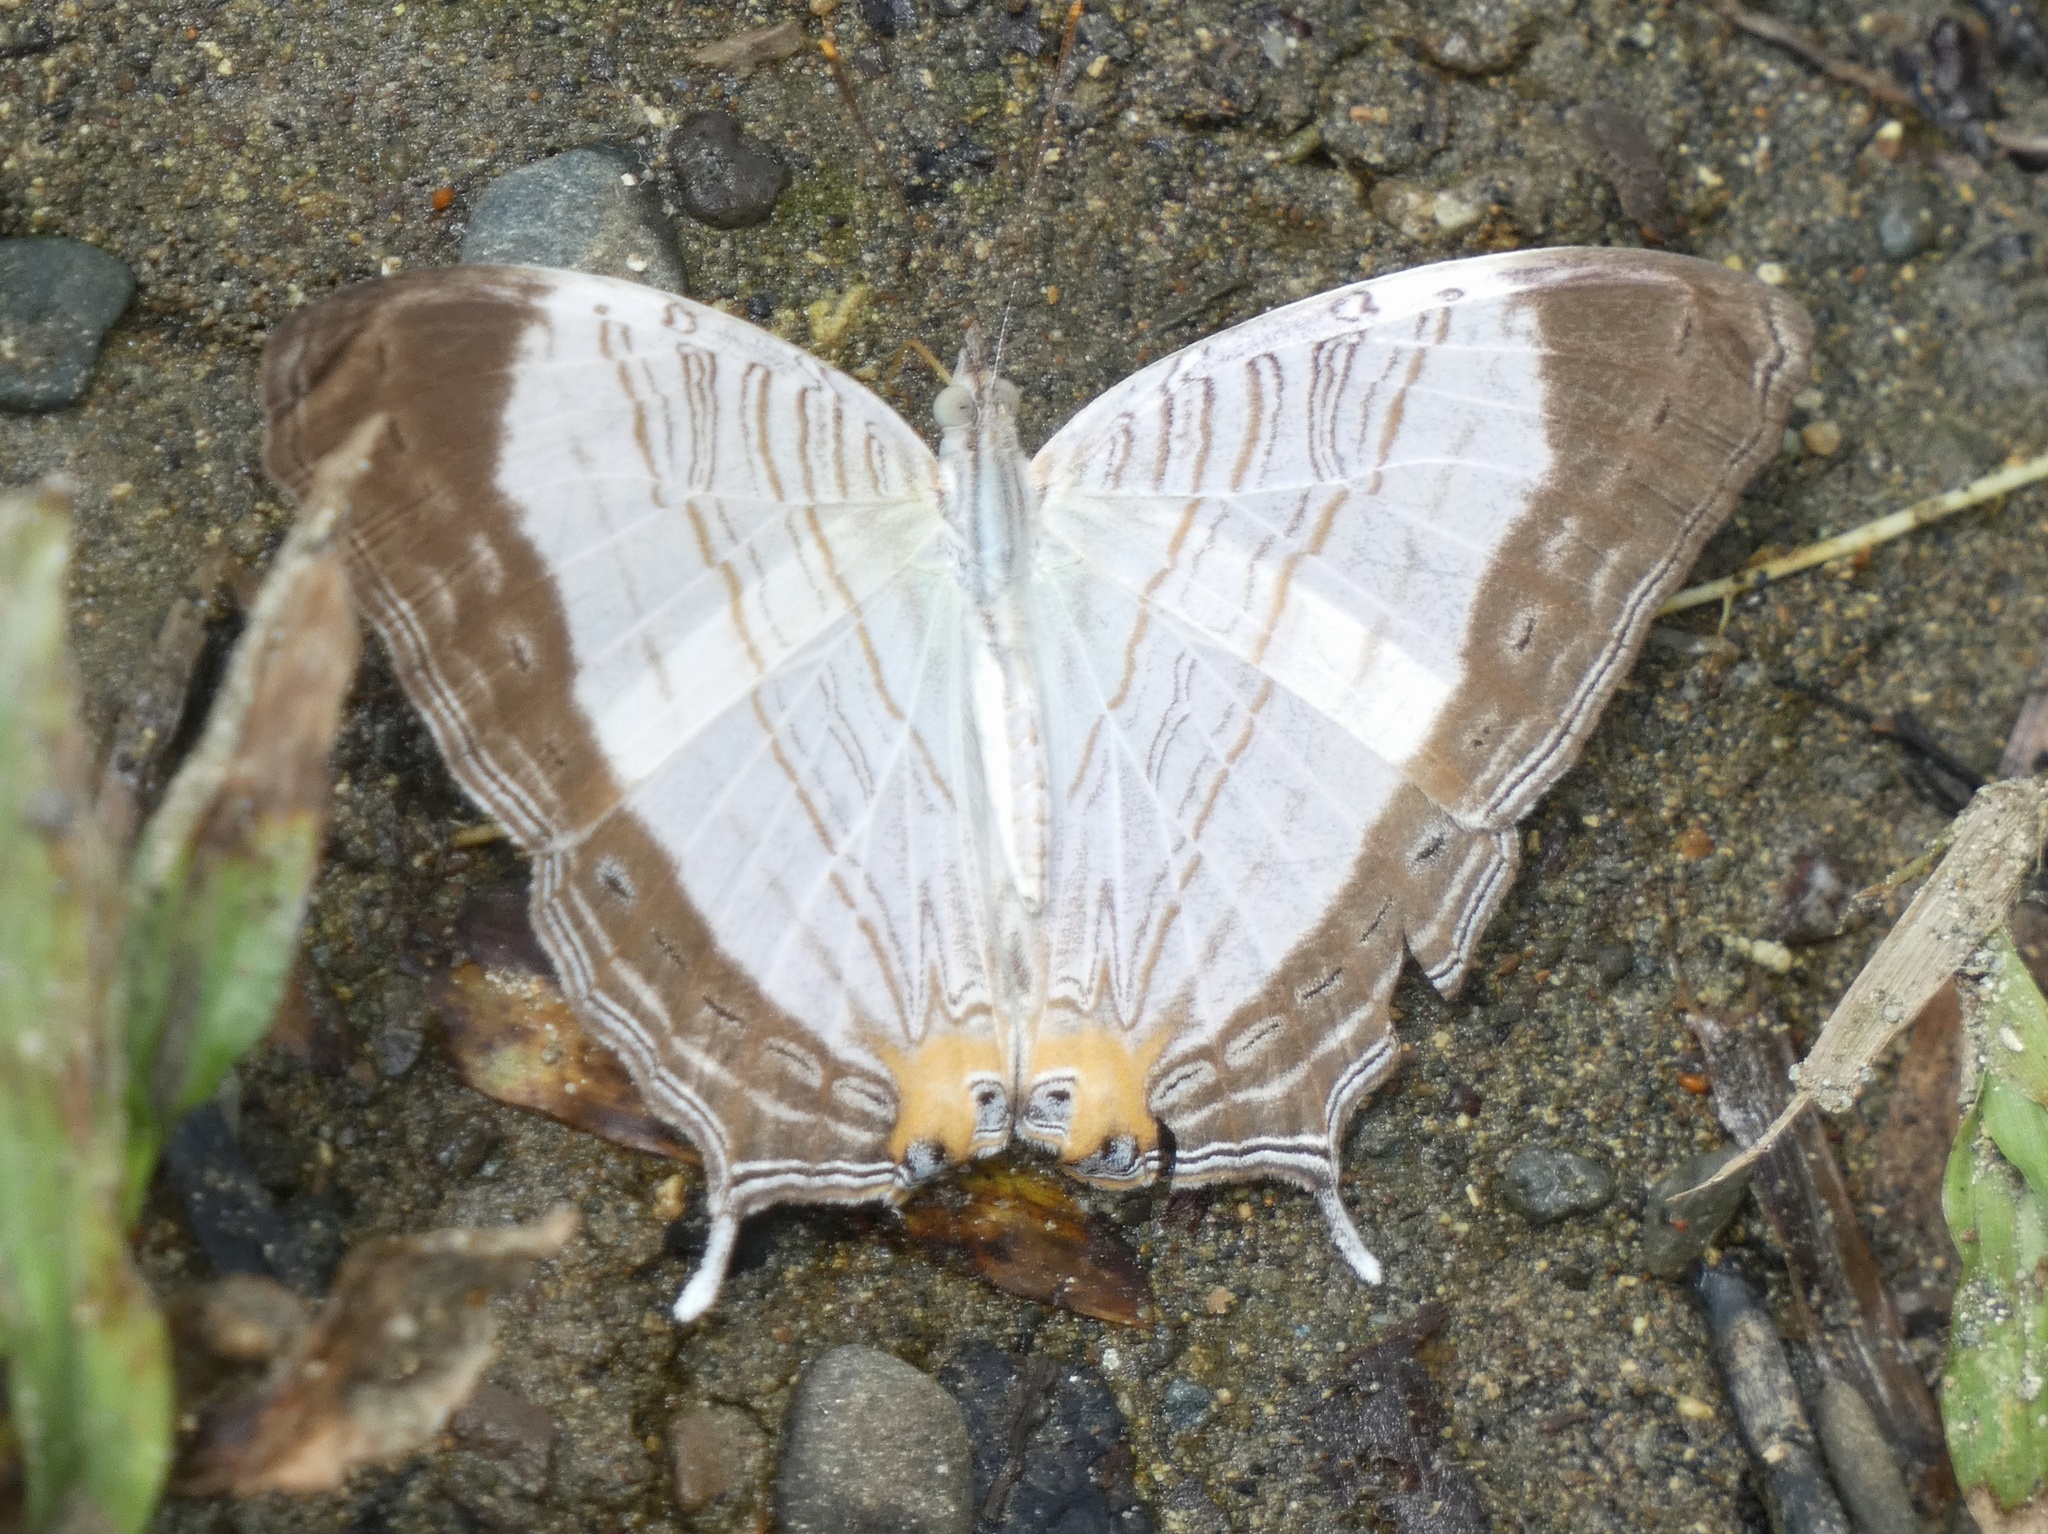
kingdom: Animalia
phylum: Arthropoda
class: Insecta
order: Lepidoptera
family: Nymphalidae
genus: Cyrestis
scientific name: Cyrestis cassander
